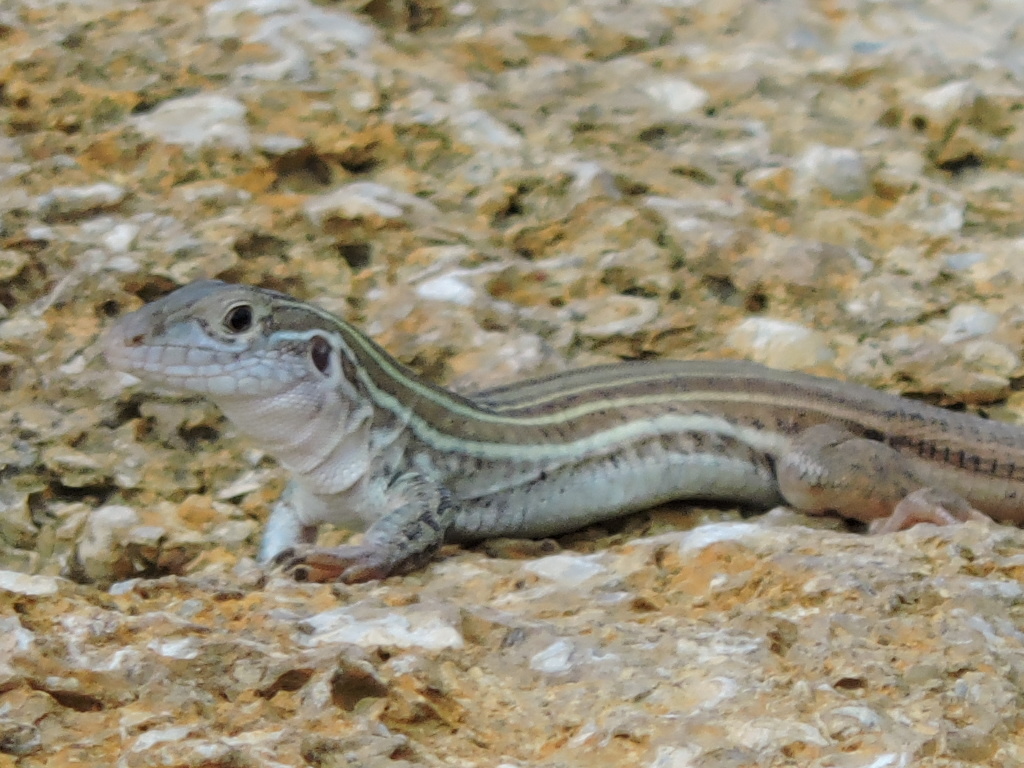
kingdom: Animalia
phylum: Chordata
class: Squamata
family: Teiidae
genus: Aspidoscelis
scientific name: Aspidoscelis gularis
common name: Eastern spotted whiptail
